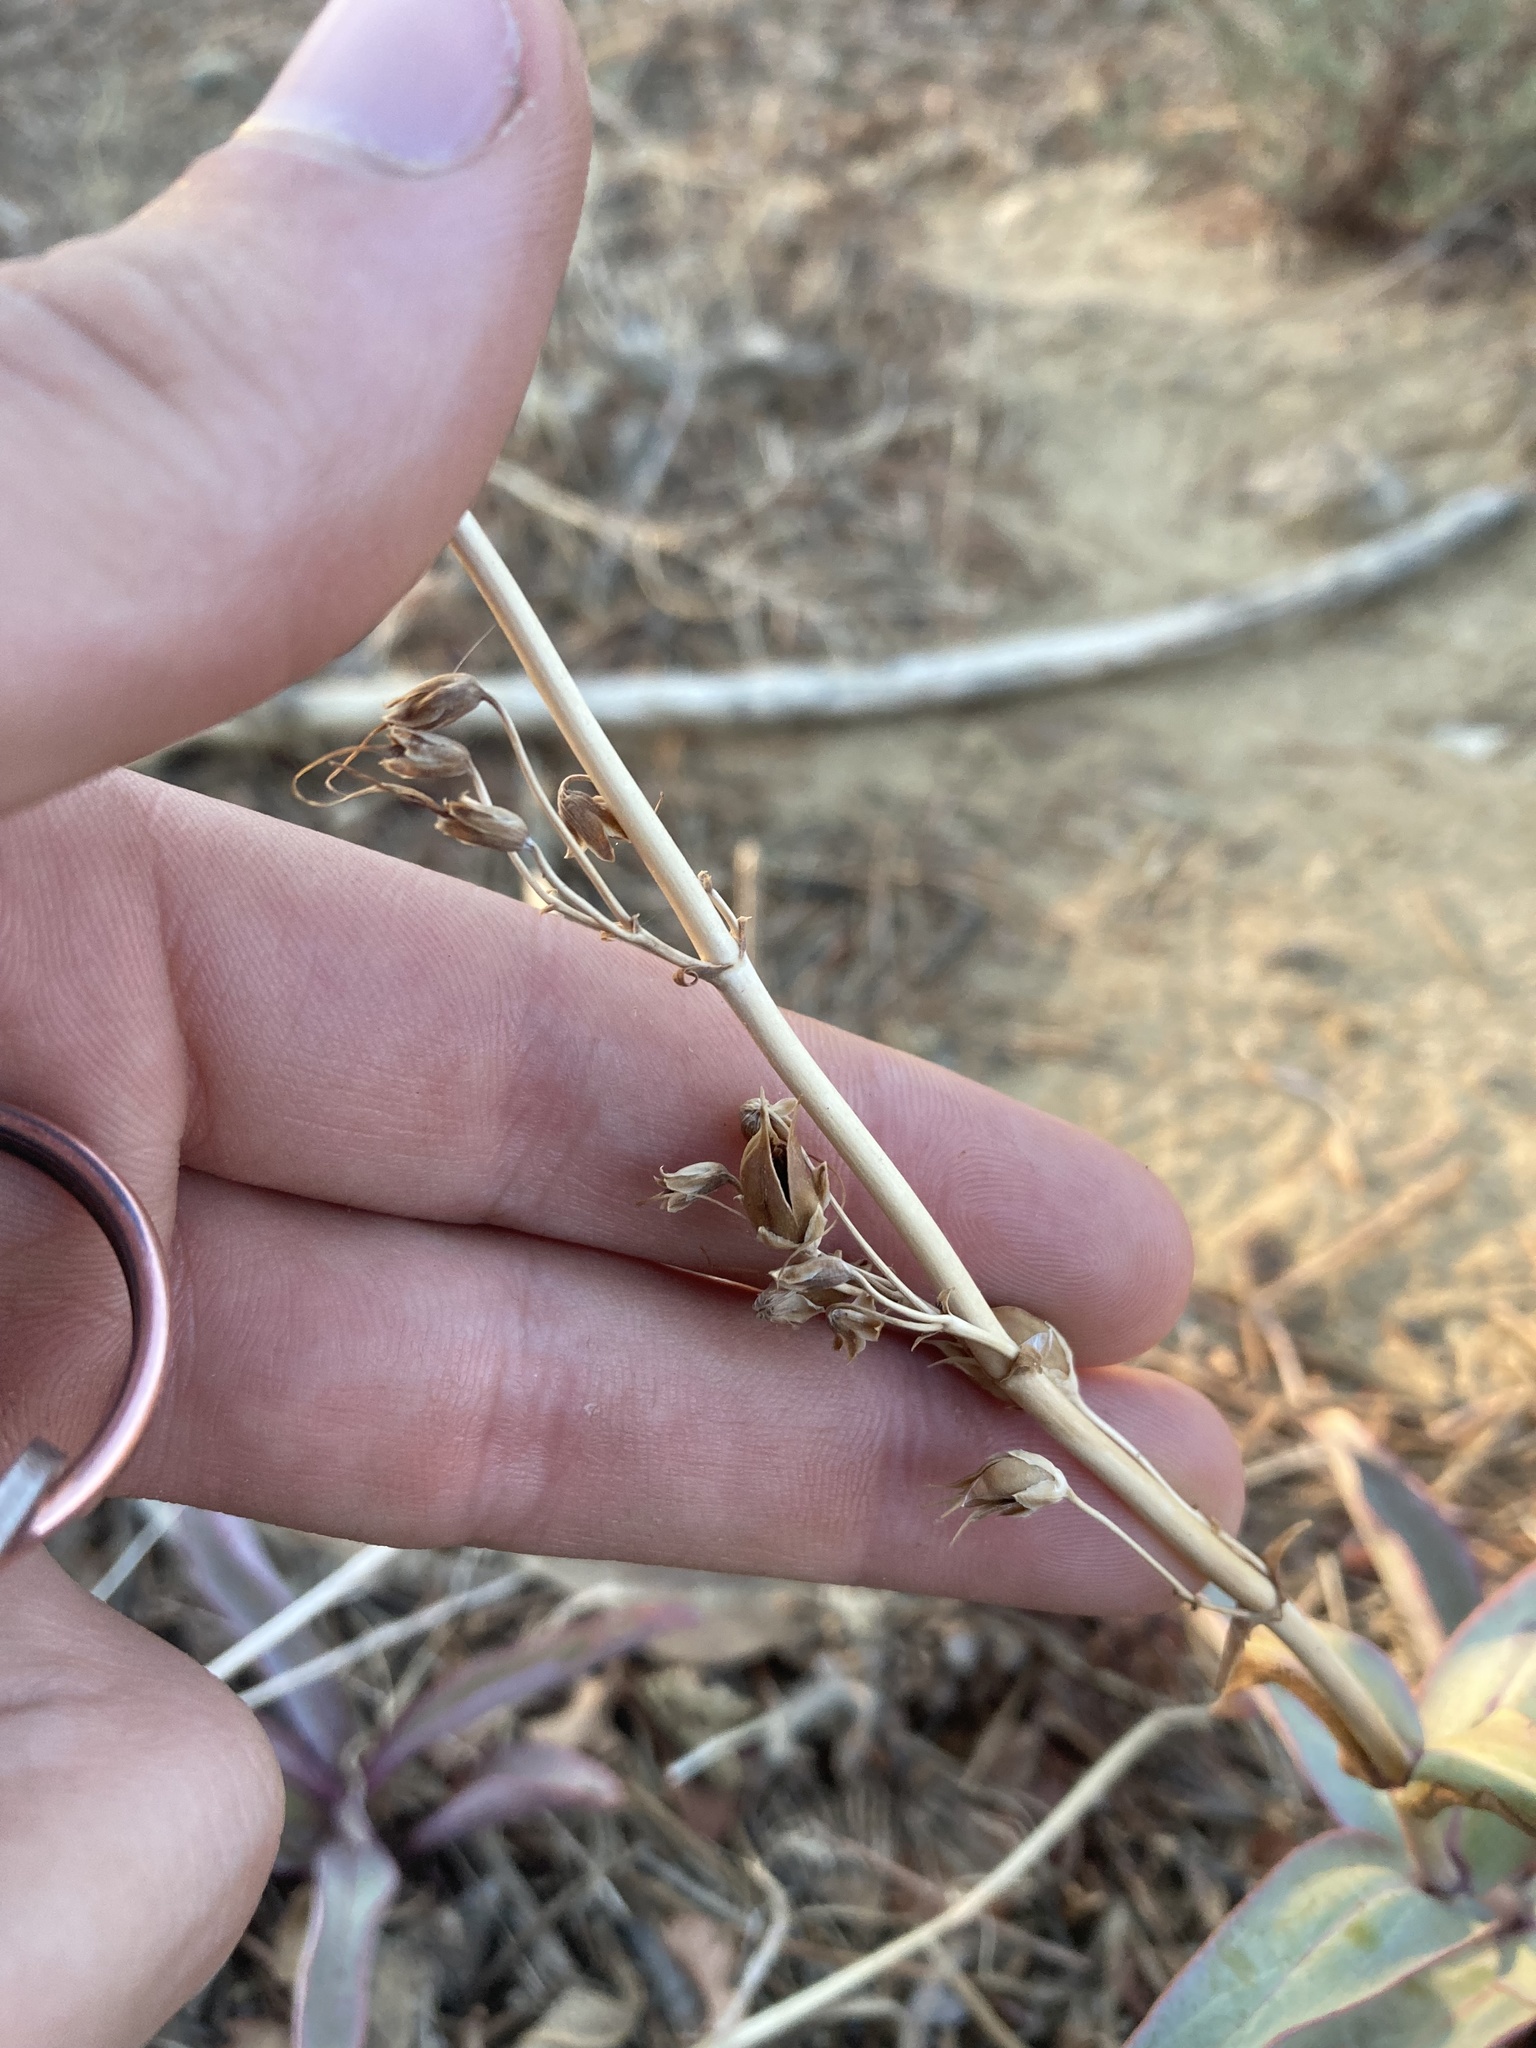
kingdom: Plantae
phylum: Tracheophyta
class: Magnoliopsida
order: Lamiales
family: Plantaginaceae
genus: Penstemon
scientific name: Penstemon centranthifolius
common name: Scarlet bugler
